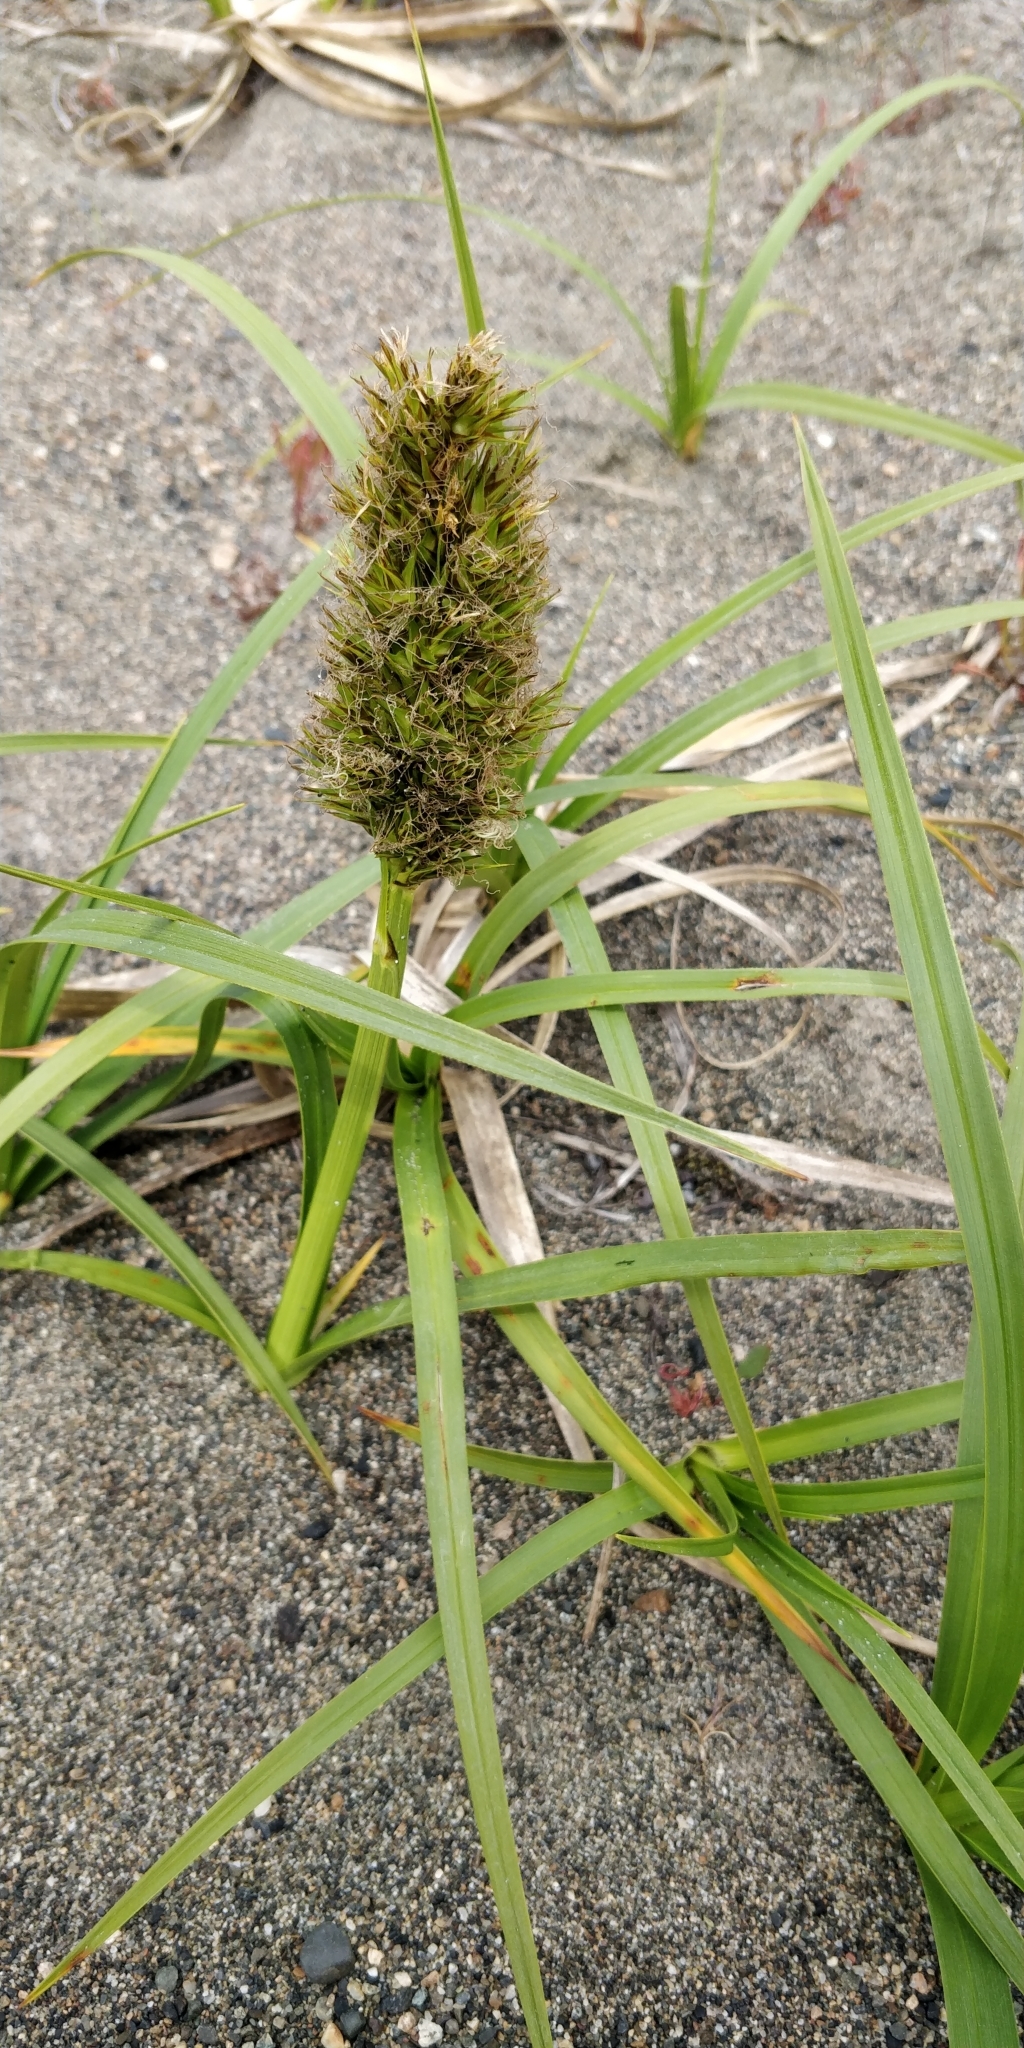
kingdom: Plantae
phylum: Tracheophyta
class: Liliopsida
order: Poales
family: Cyperaceae
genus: Carex
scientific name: Carex macrocephala
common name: Large-head sedge
